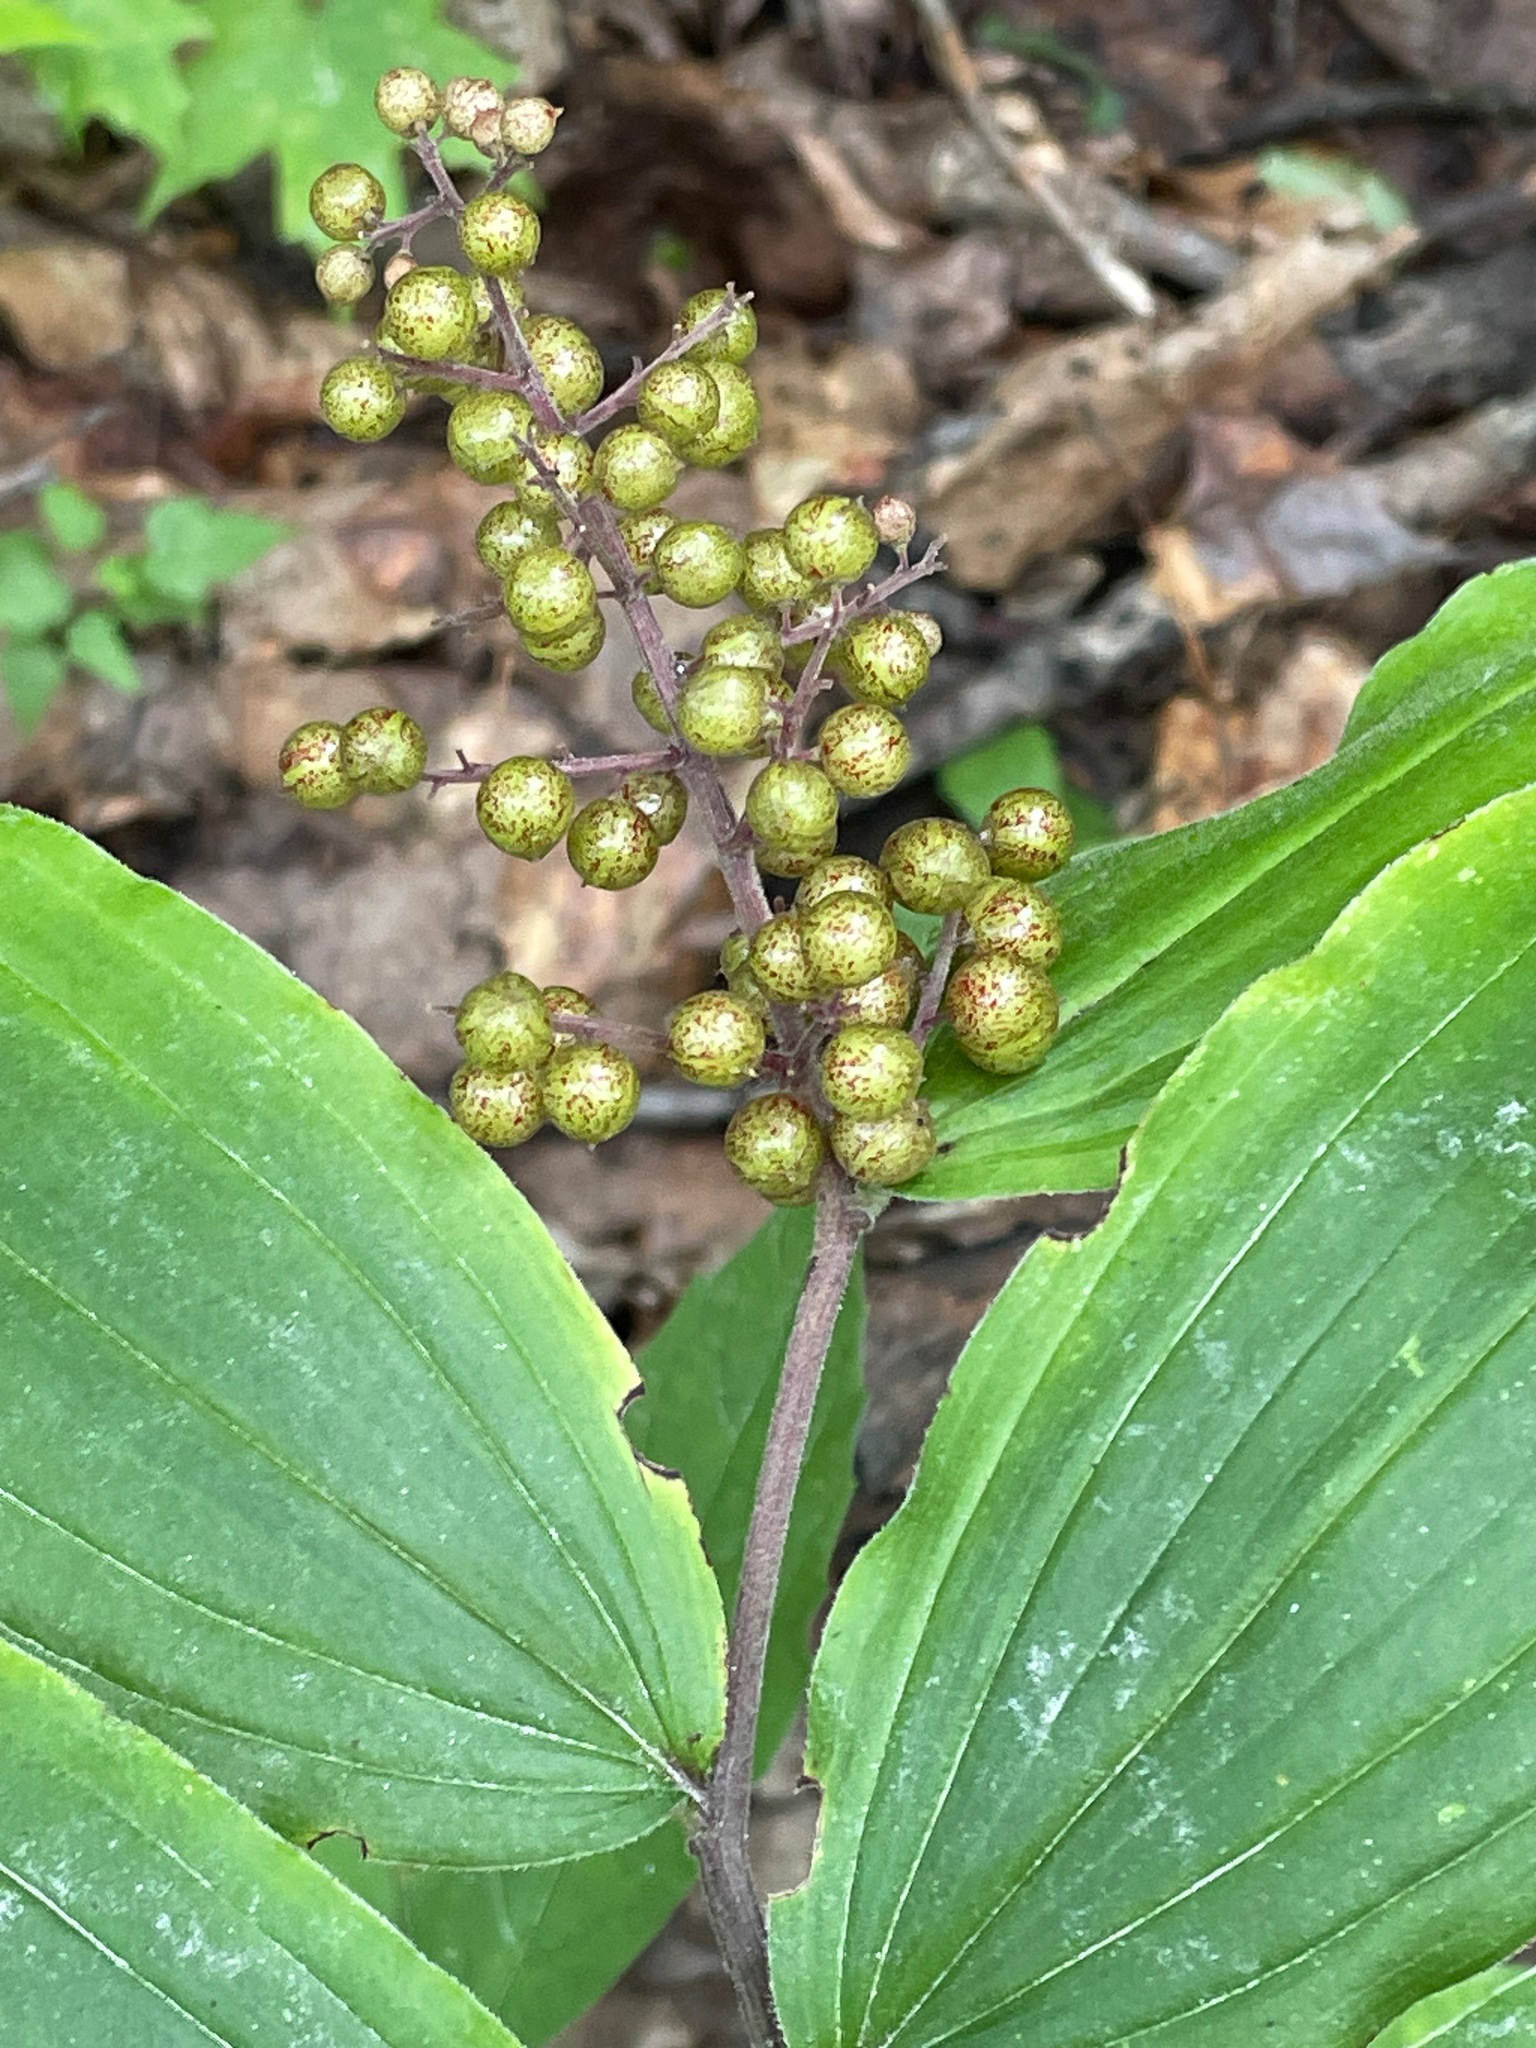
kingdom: Plantae
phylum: Tracheophyta
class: Liliopsida
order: Asparagales
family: Asparagaceae
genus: Maianthemum
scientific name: Maianthemum racemosum
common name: False spikenard
